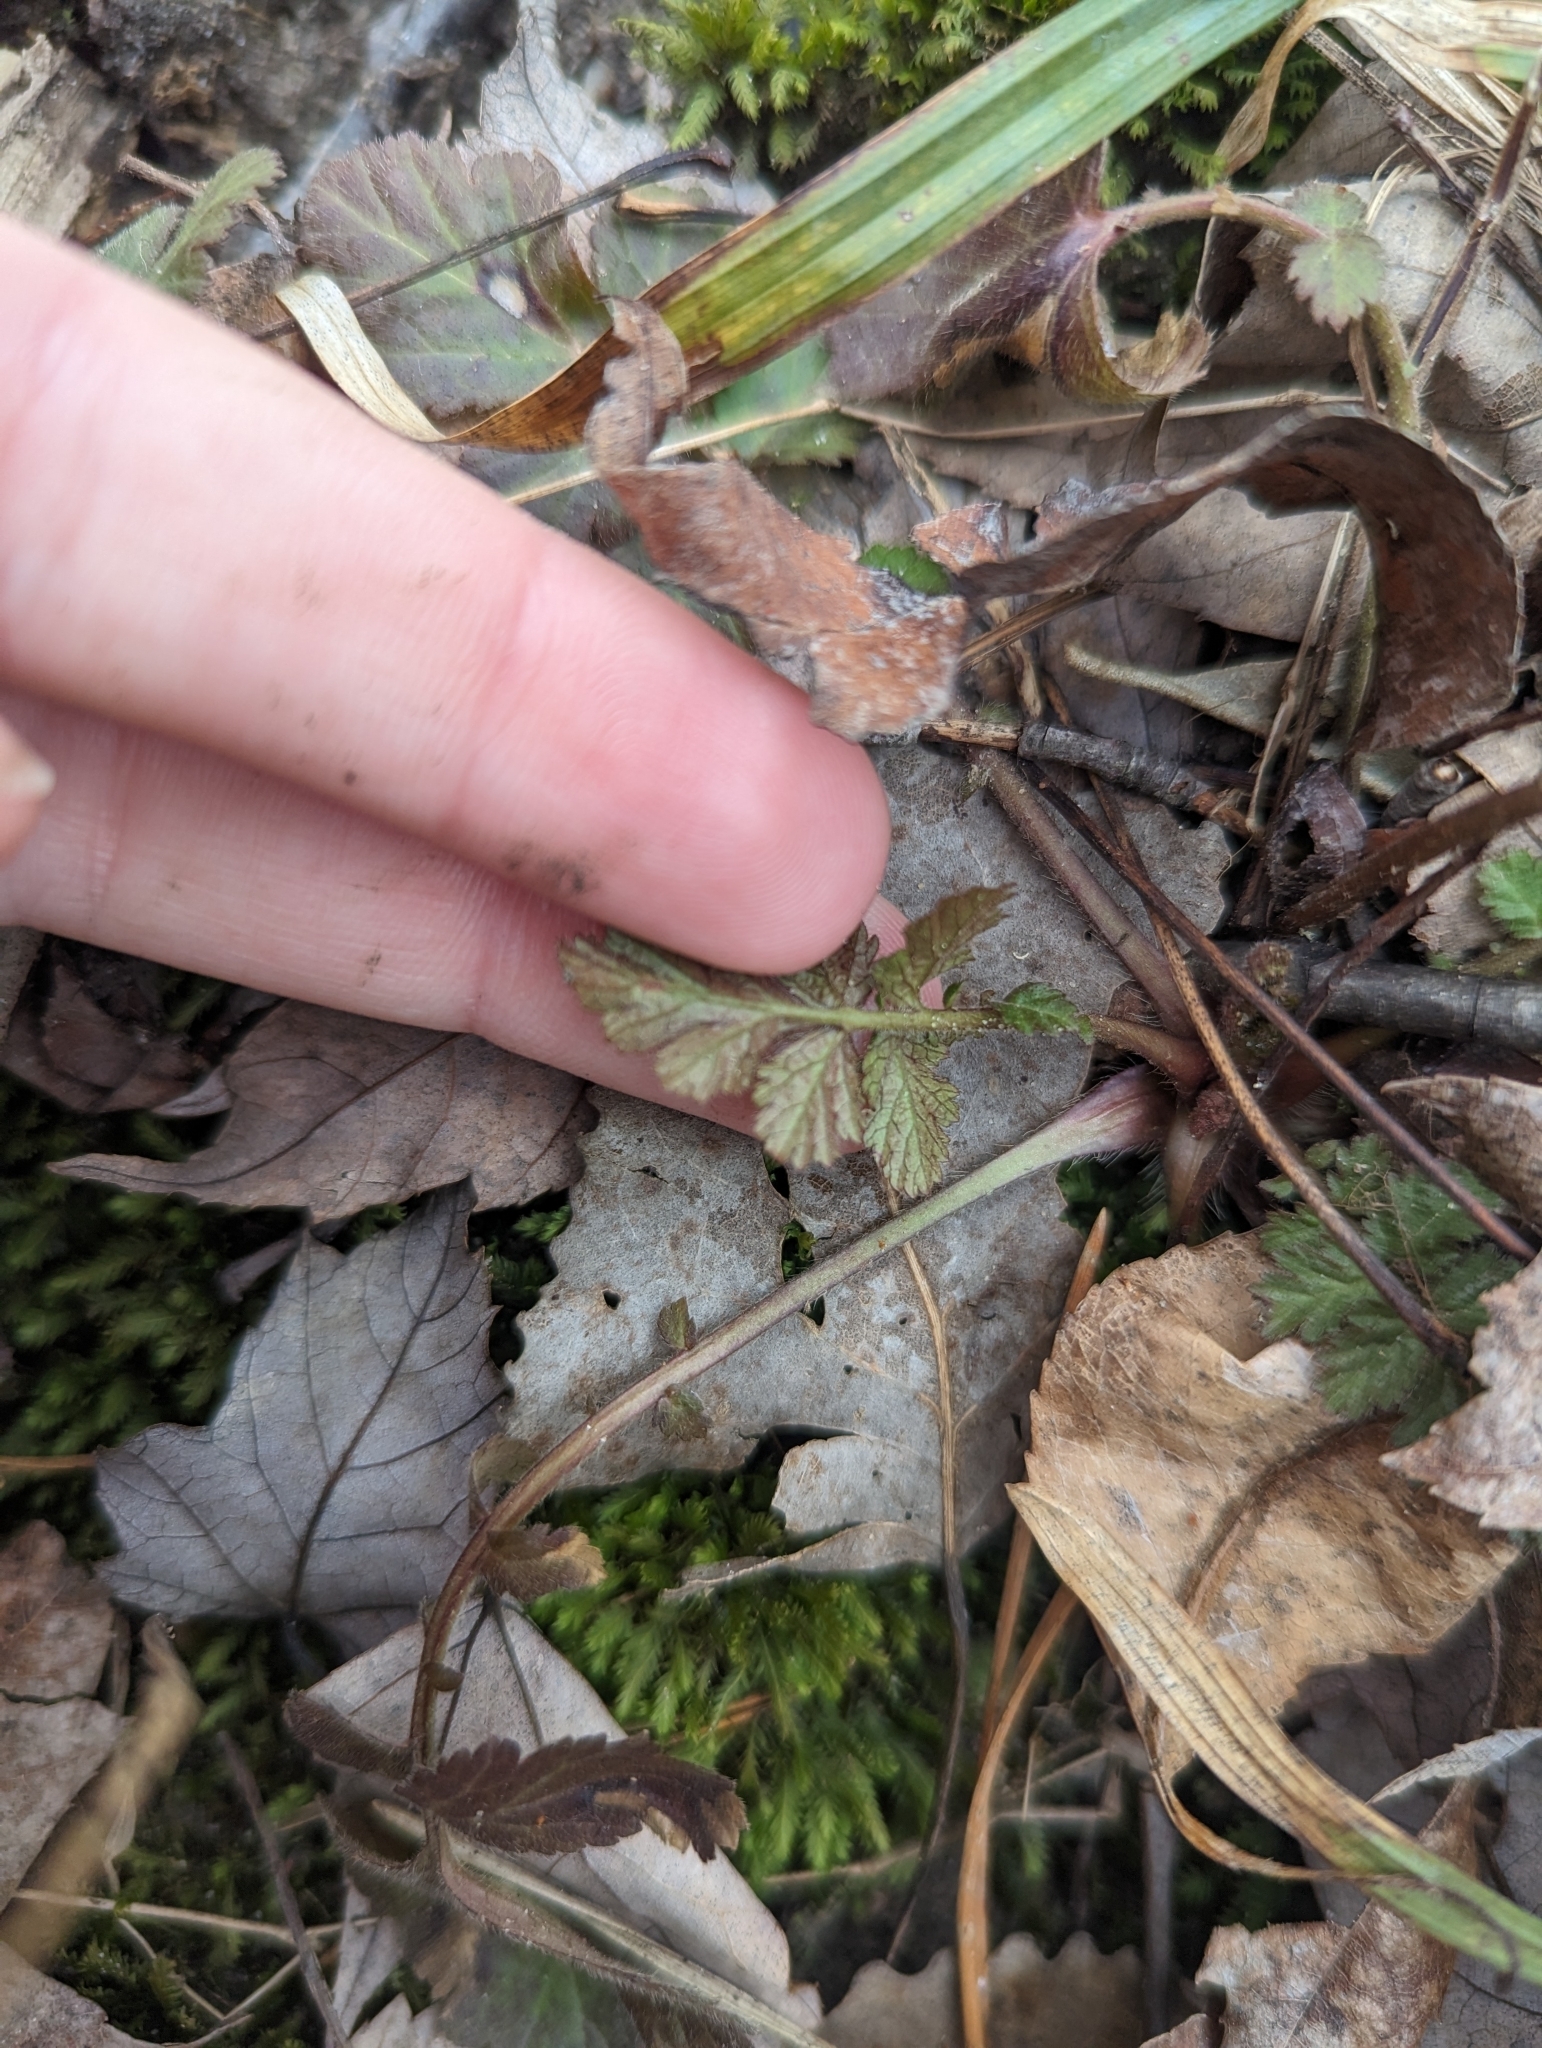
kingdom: Plantae
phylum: Tracheophyta
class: Magnoliopsida
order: Rosales
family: Rosaceae
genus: Geum
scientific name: Geum canadense
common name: White avens
